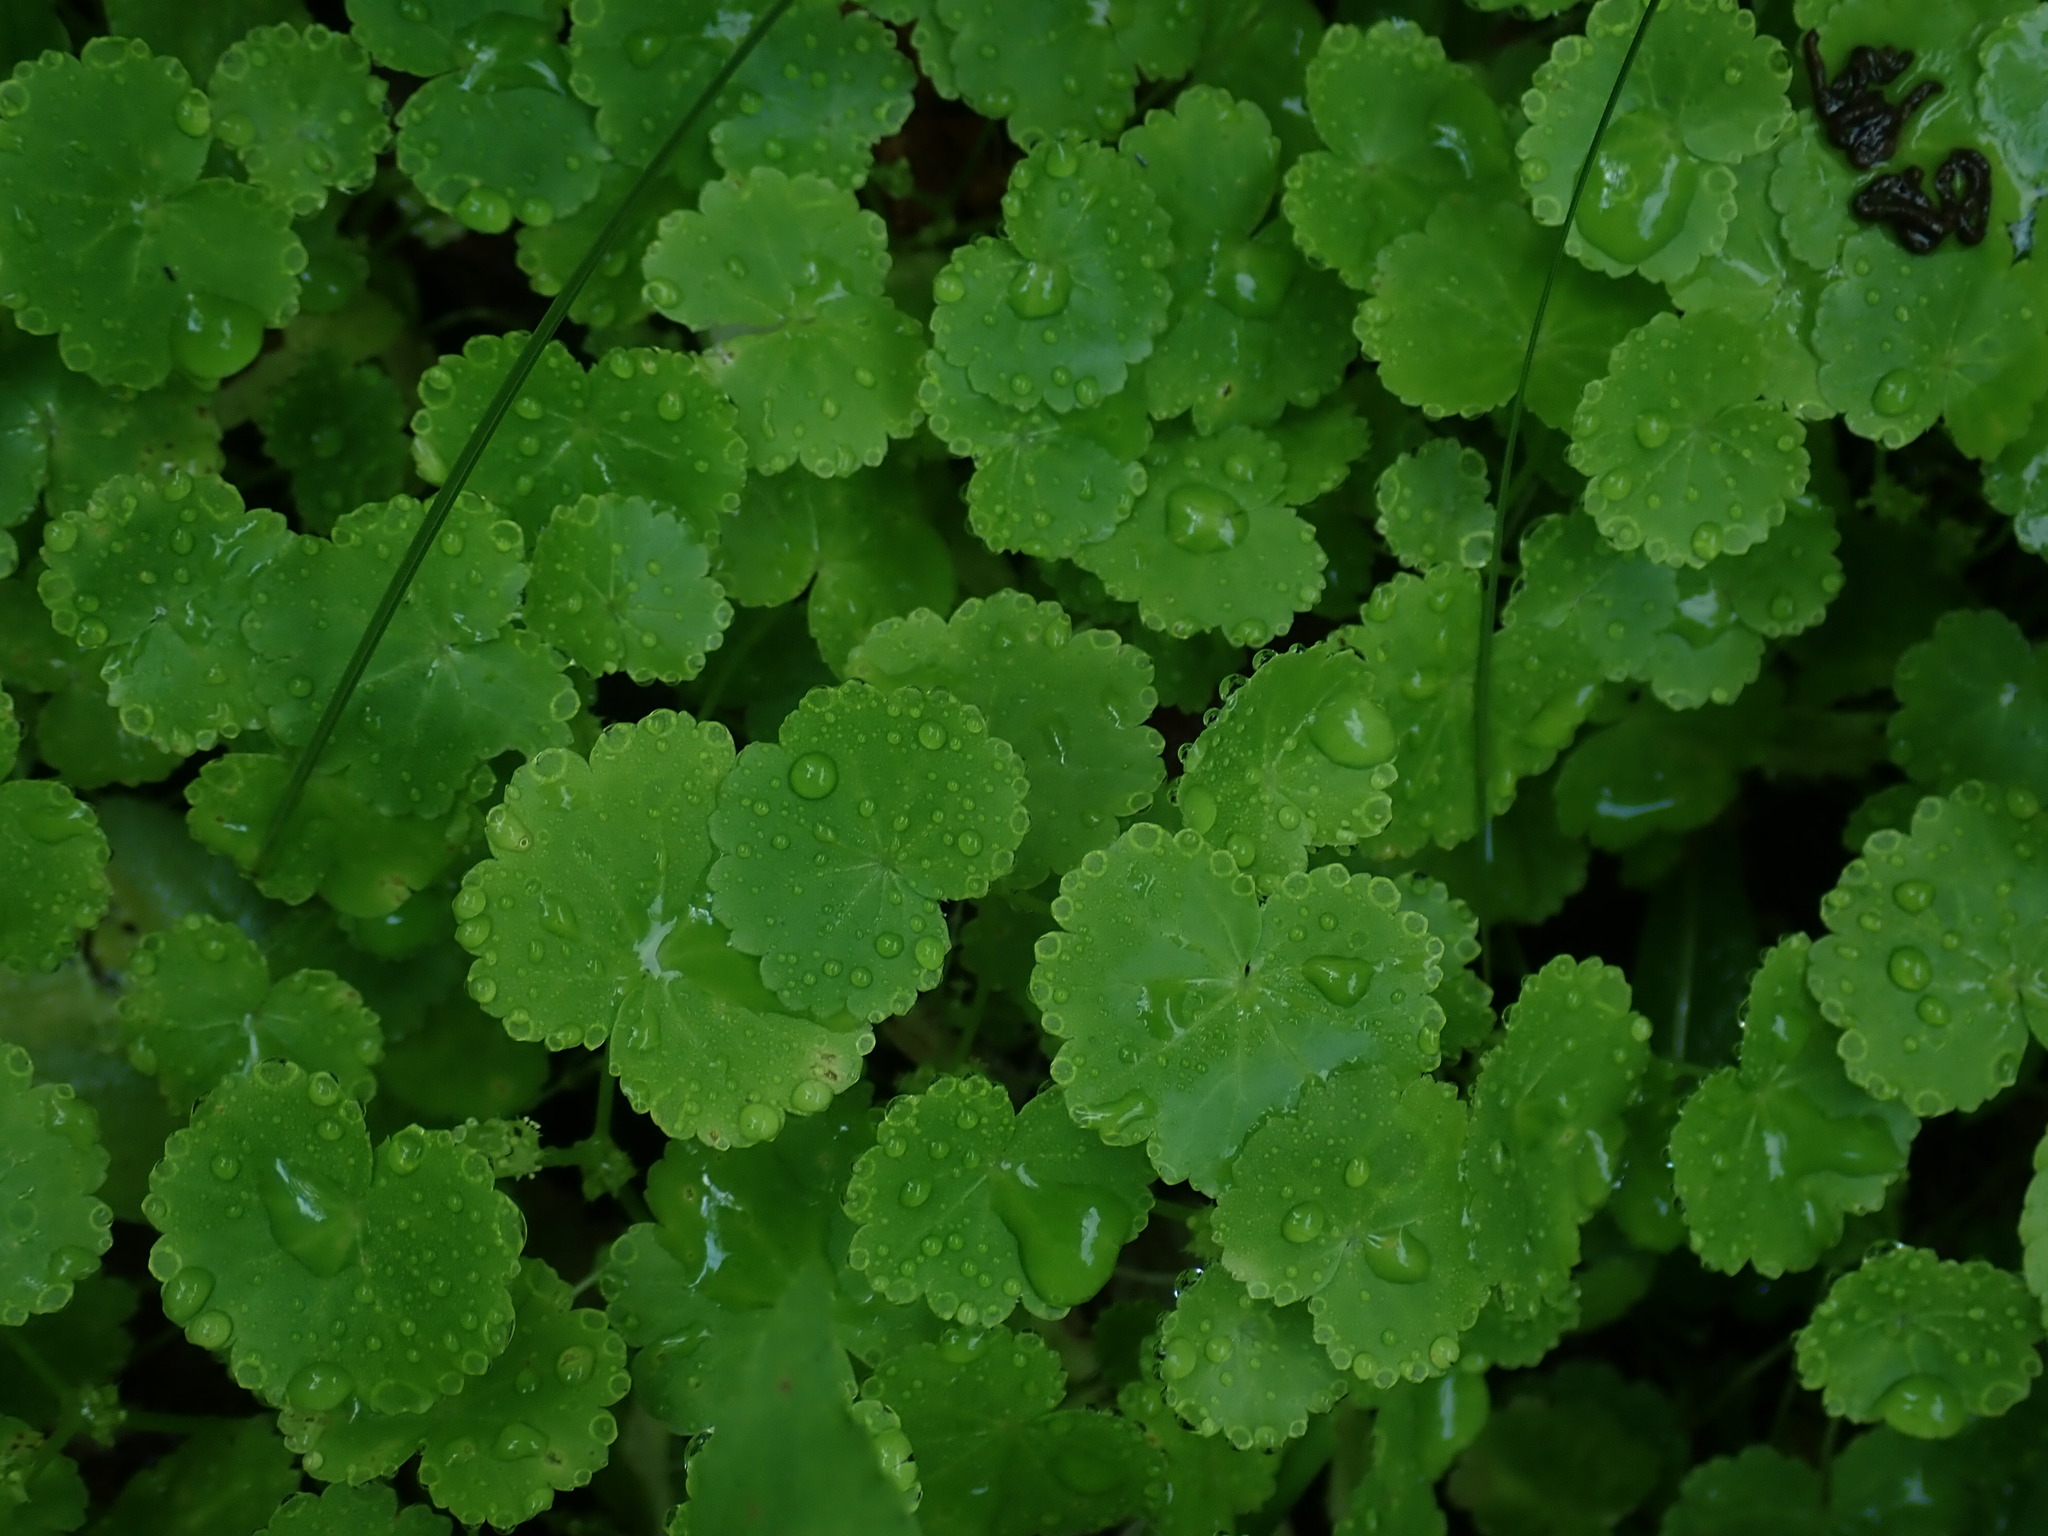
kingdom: Plantae
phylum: Tracheophyta
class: Magnoliopsida
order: Apiales
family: Araliaceae
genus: Hydrocotyle
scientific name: Hydrocotyle americana
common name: American water-pennywort
